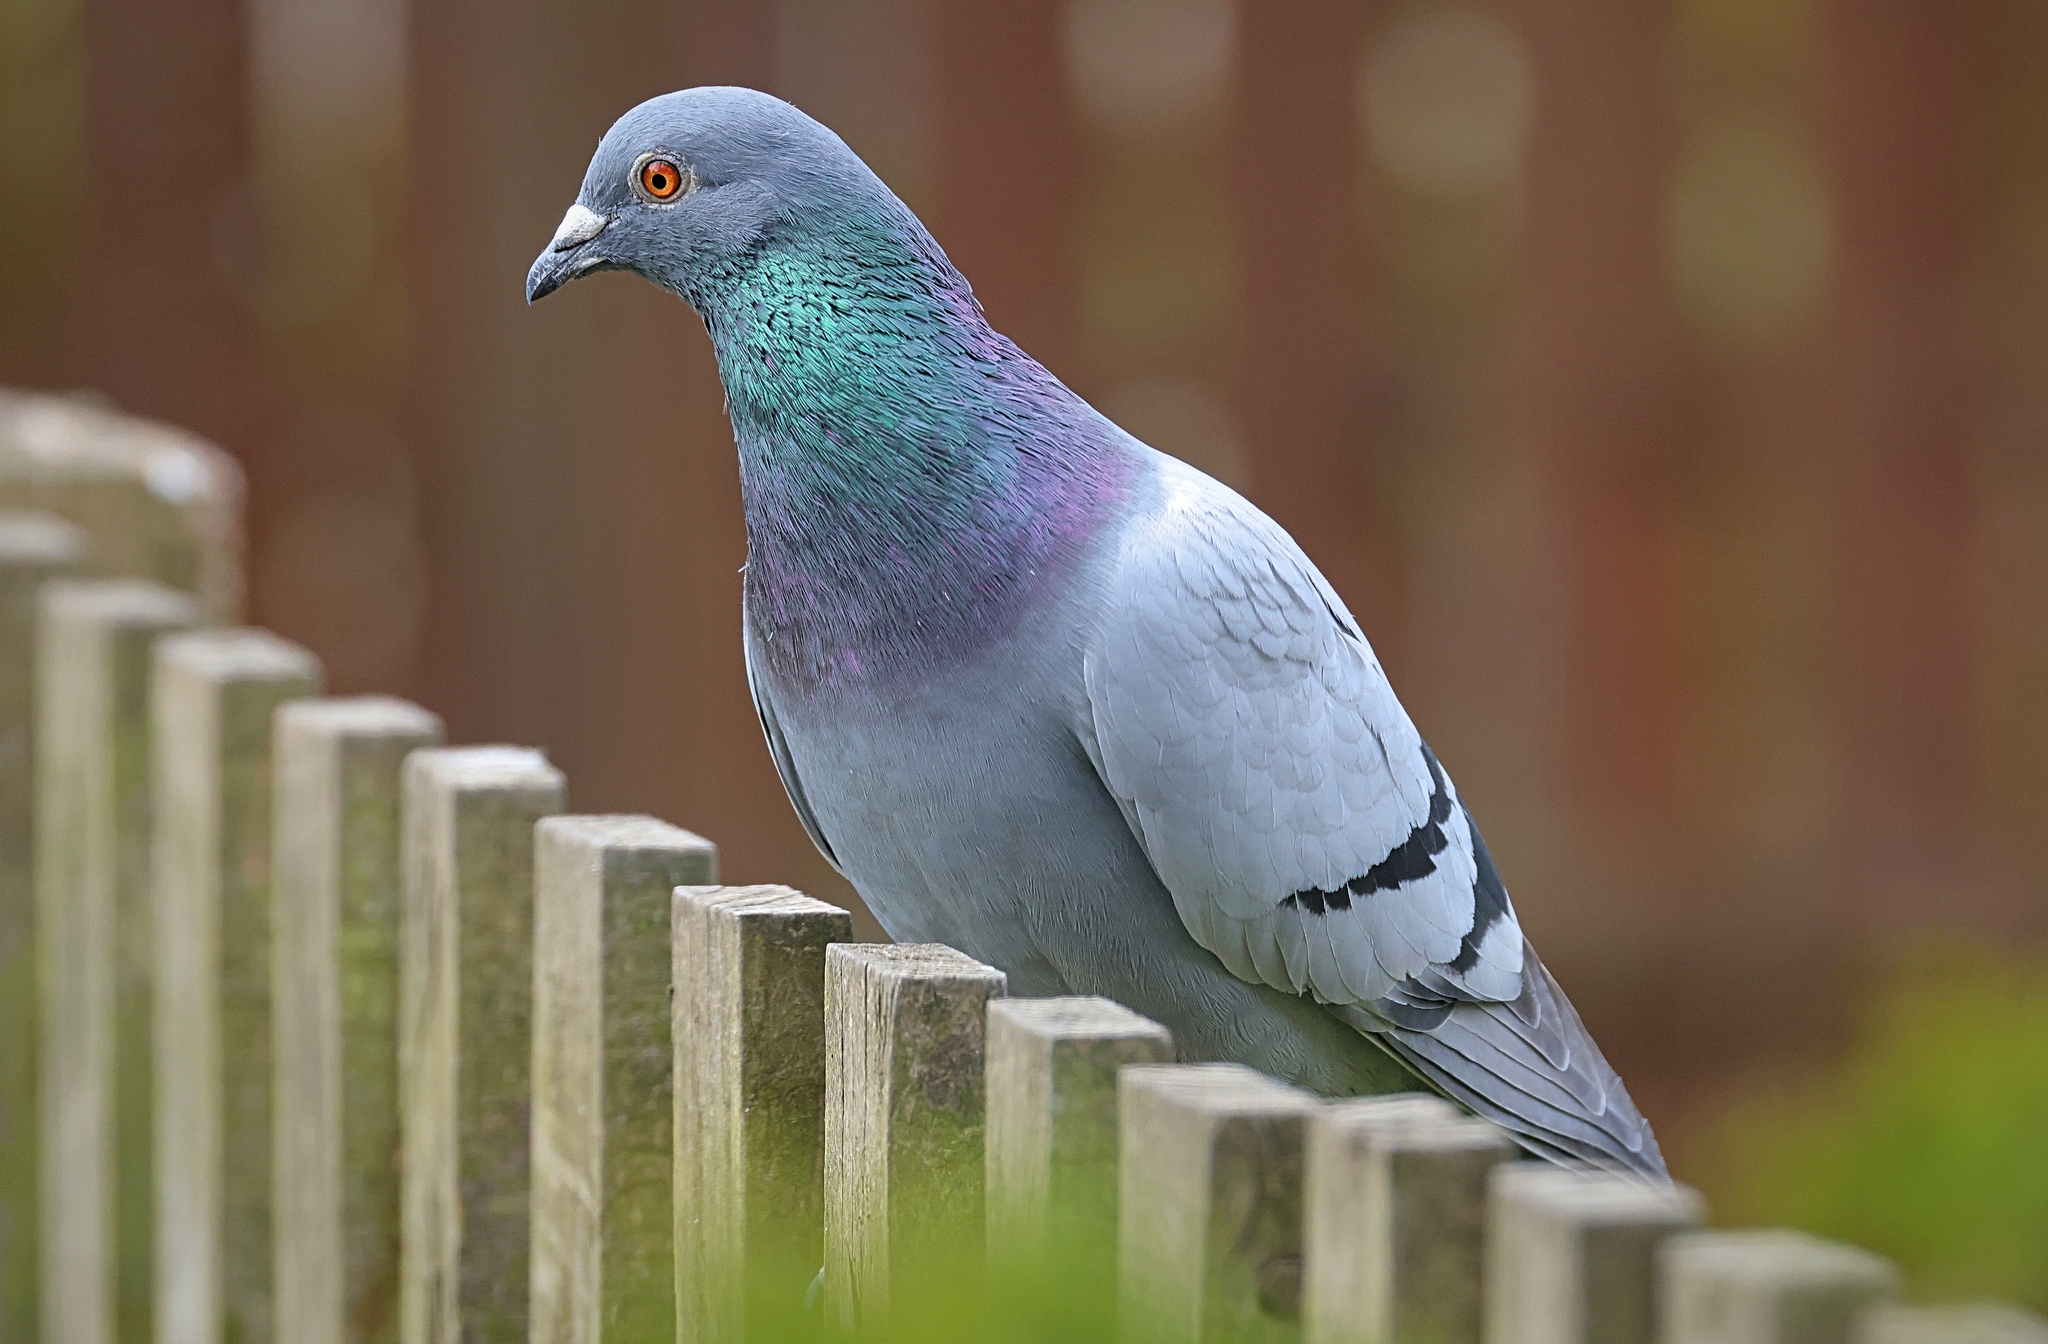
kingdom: Animalia
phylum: Chordata
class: Aves
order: Columbiformes
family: Columbidae
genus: Columba
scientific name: Columba livia
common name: Rock pigeon
